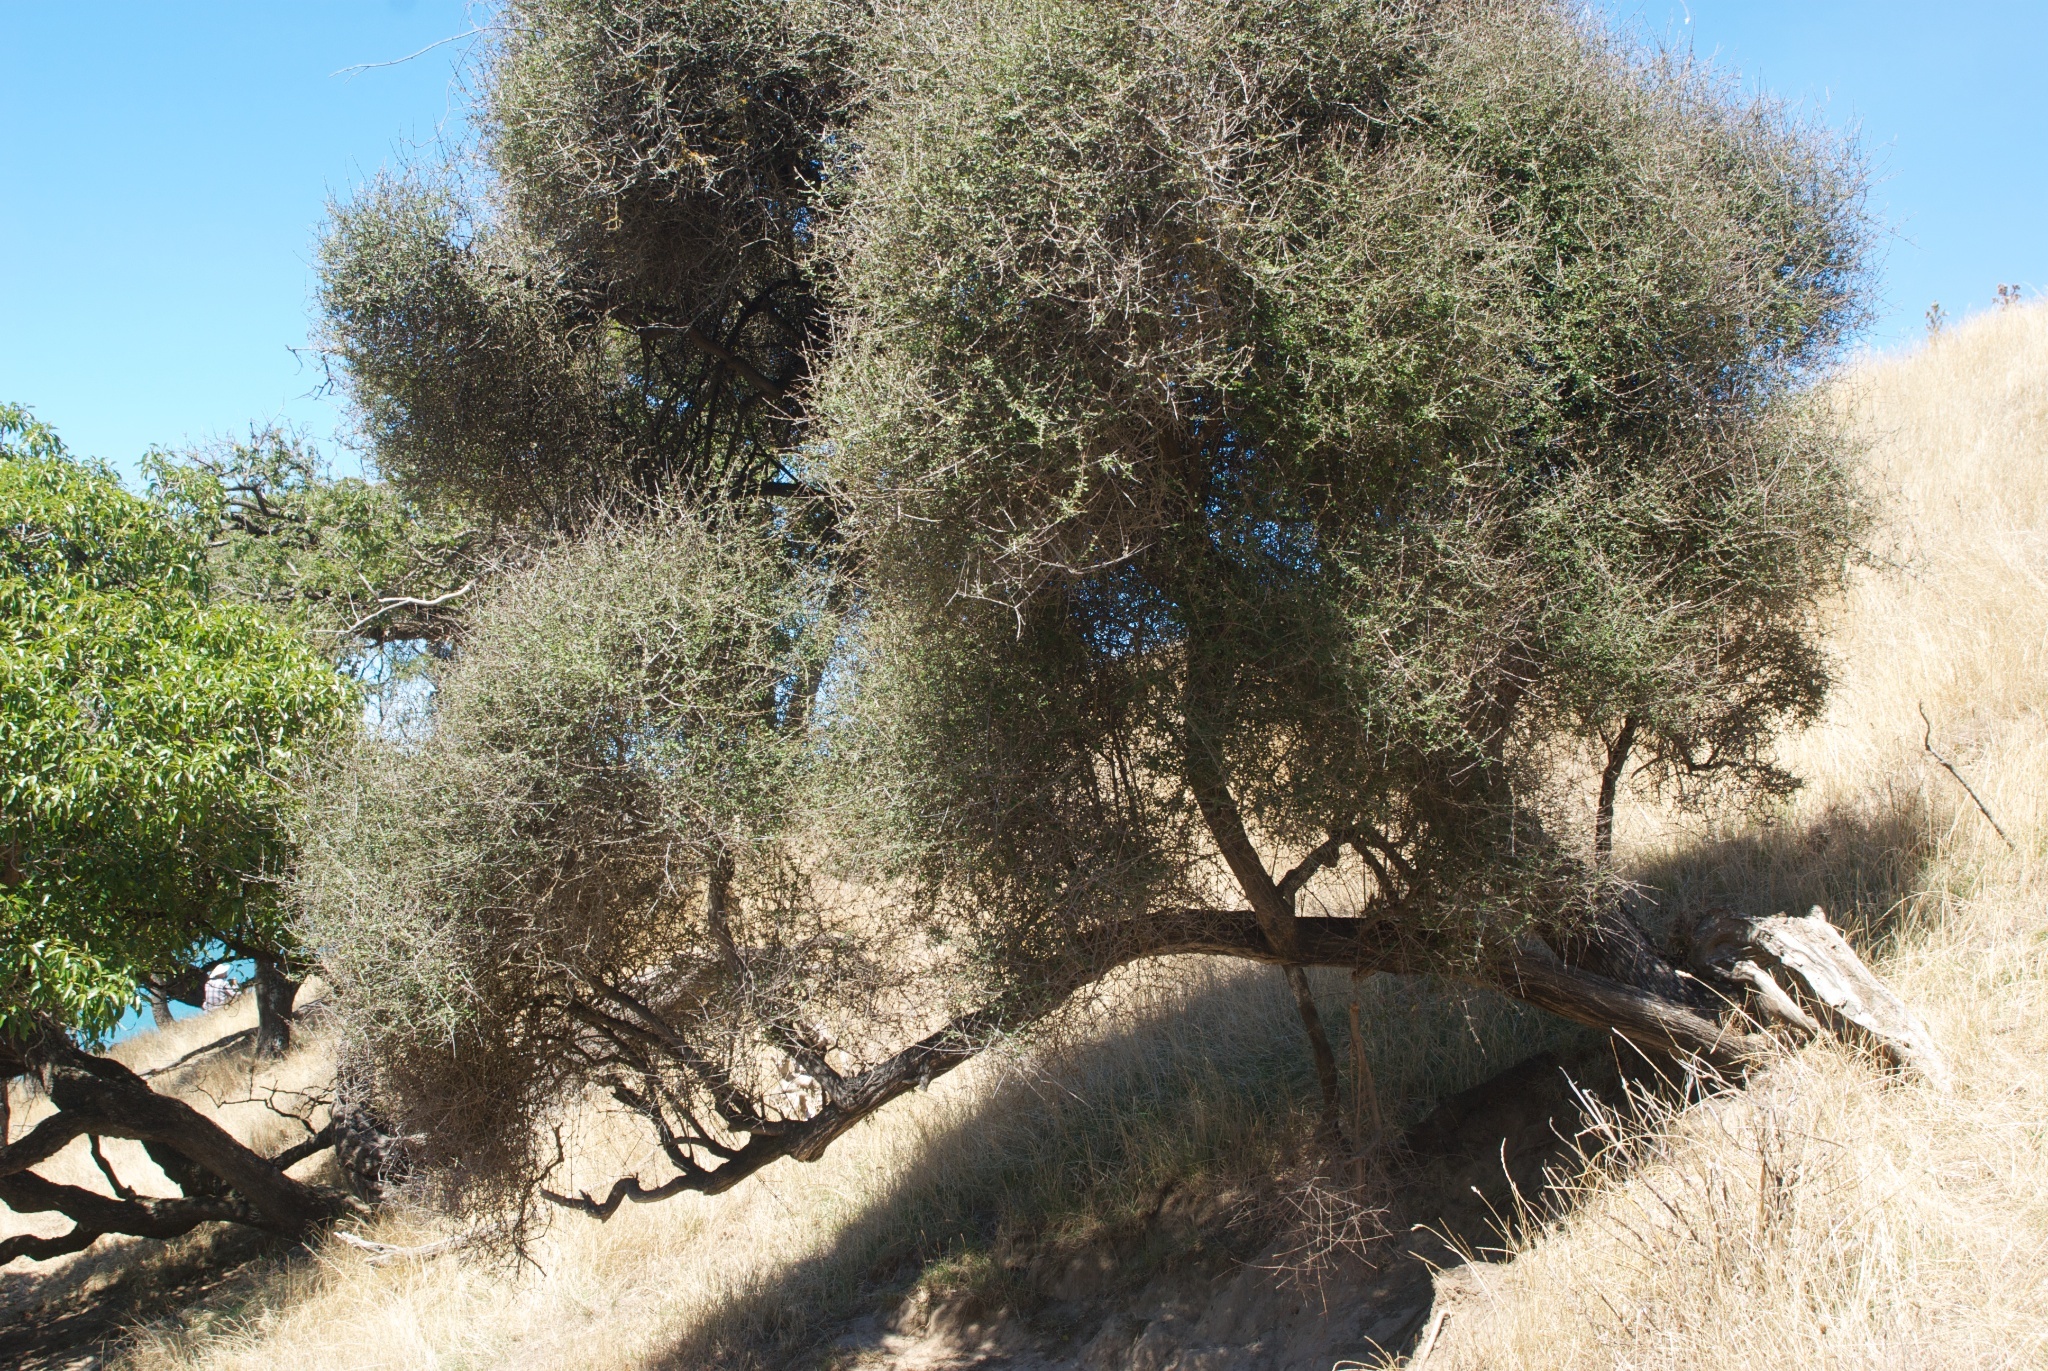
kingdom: Plantae
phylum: Tracheophyta
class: Magnoliopsida
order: Asterales
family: Asteraceae
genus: Olearia
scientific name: Olearia fimbriata
